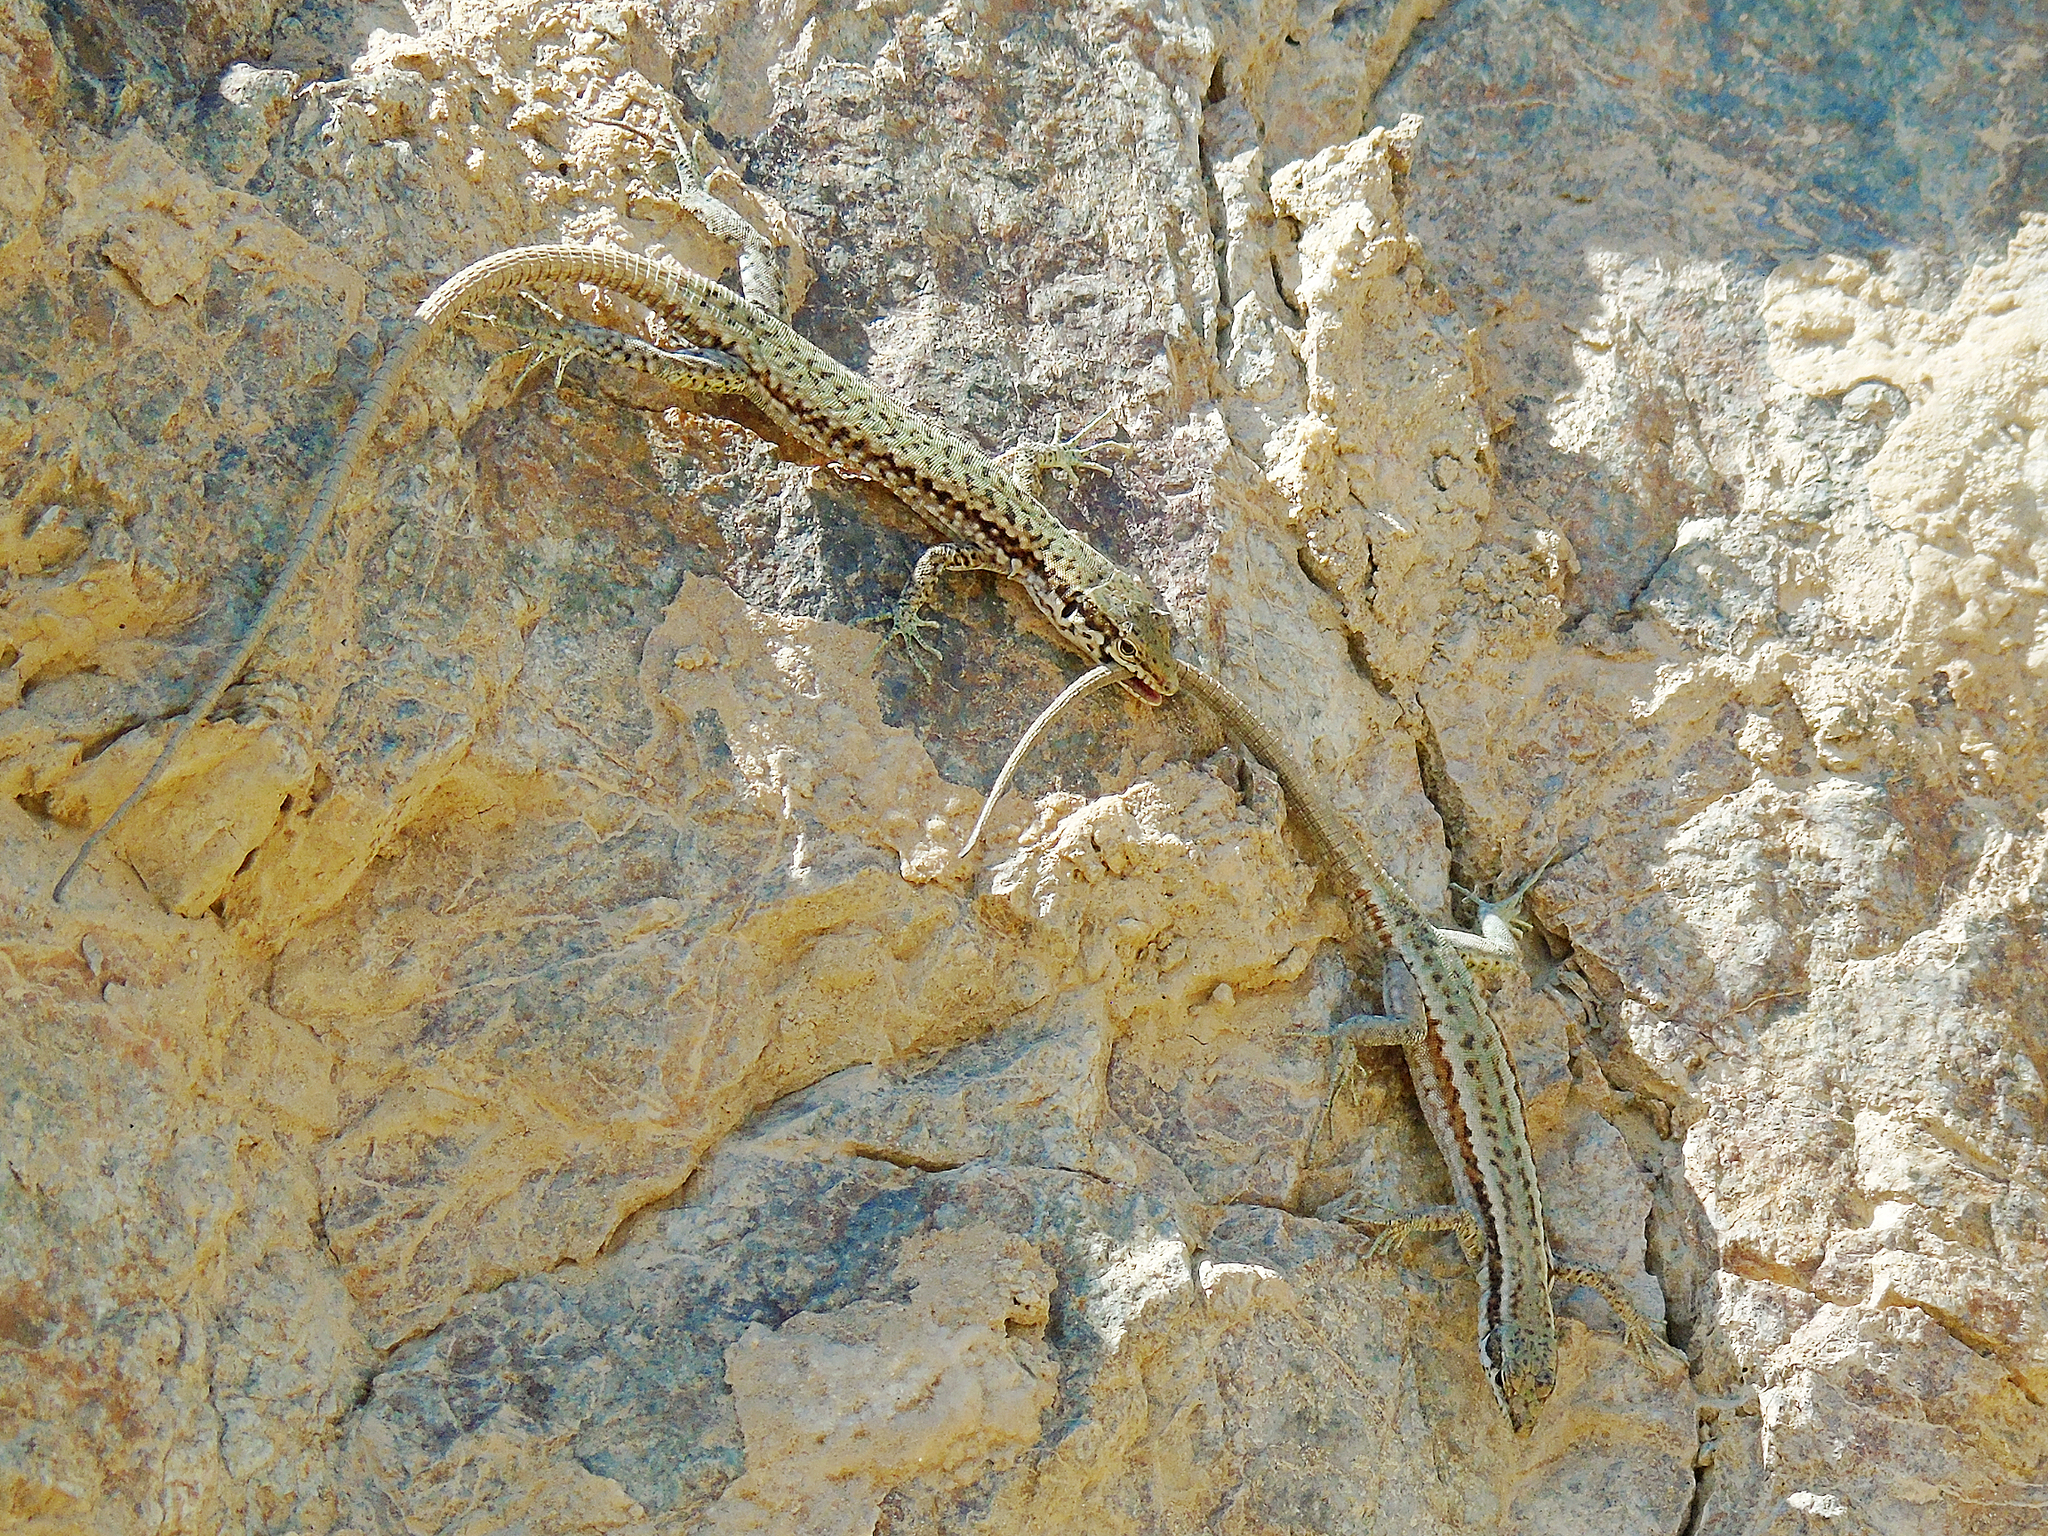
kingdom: Animalia
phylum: Chordata
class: Squamata
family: Lacertidae
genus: Darevskia
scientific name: Darevskia parvula
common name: Georgian lizard
